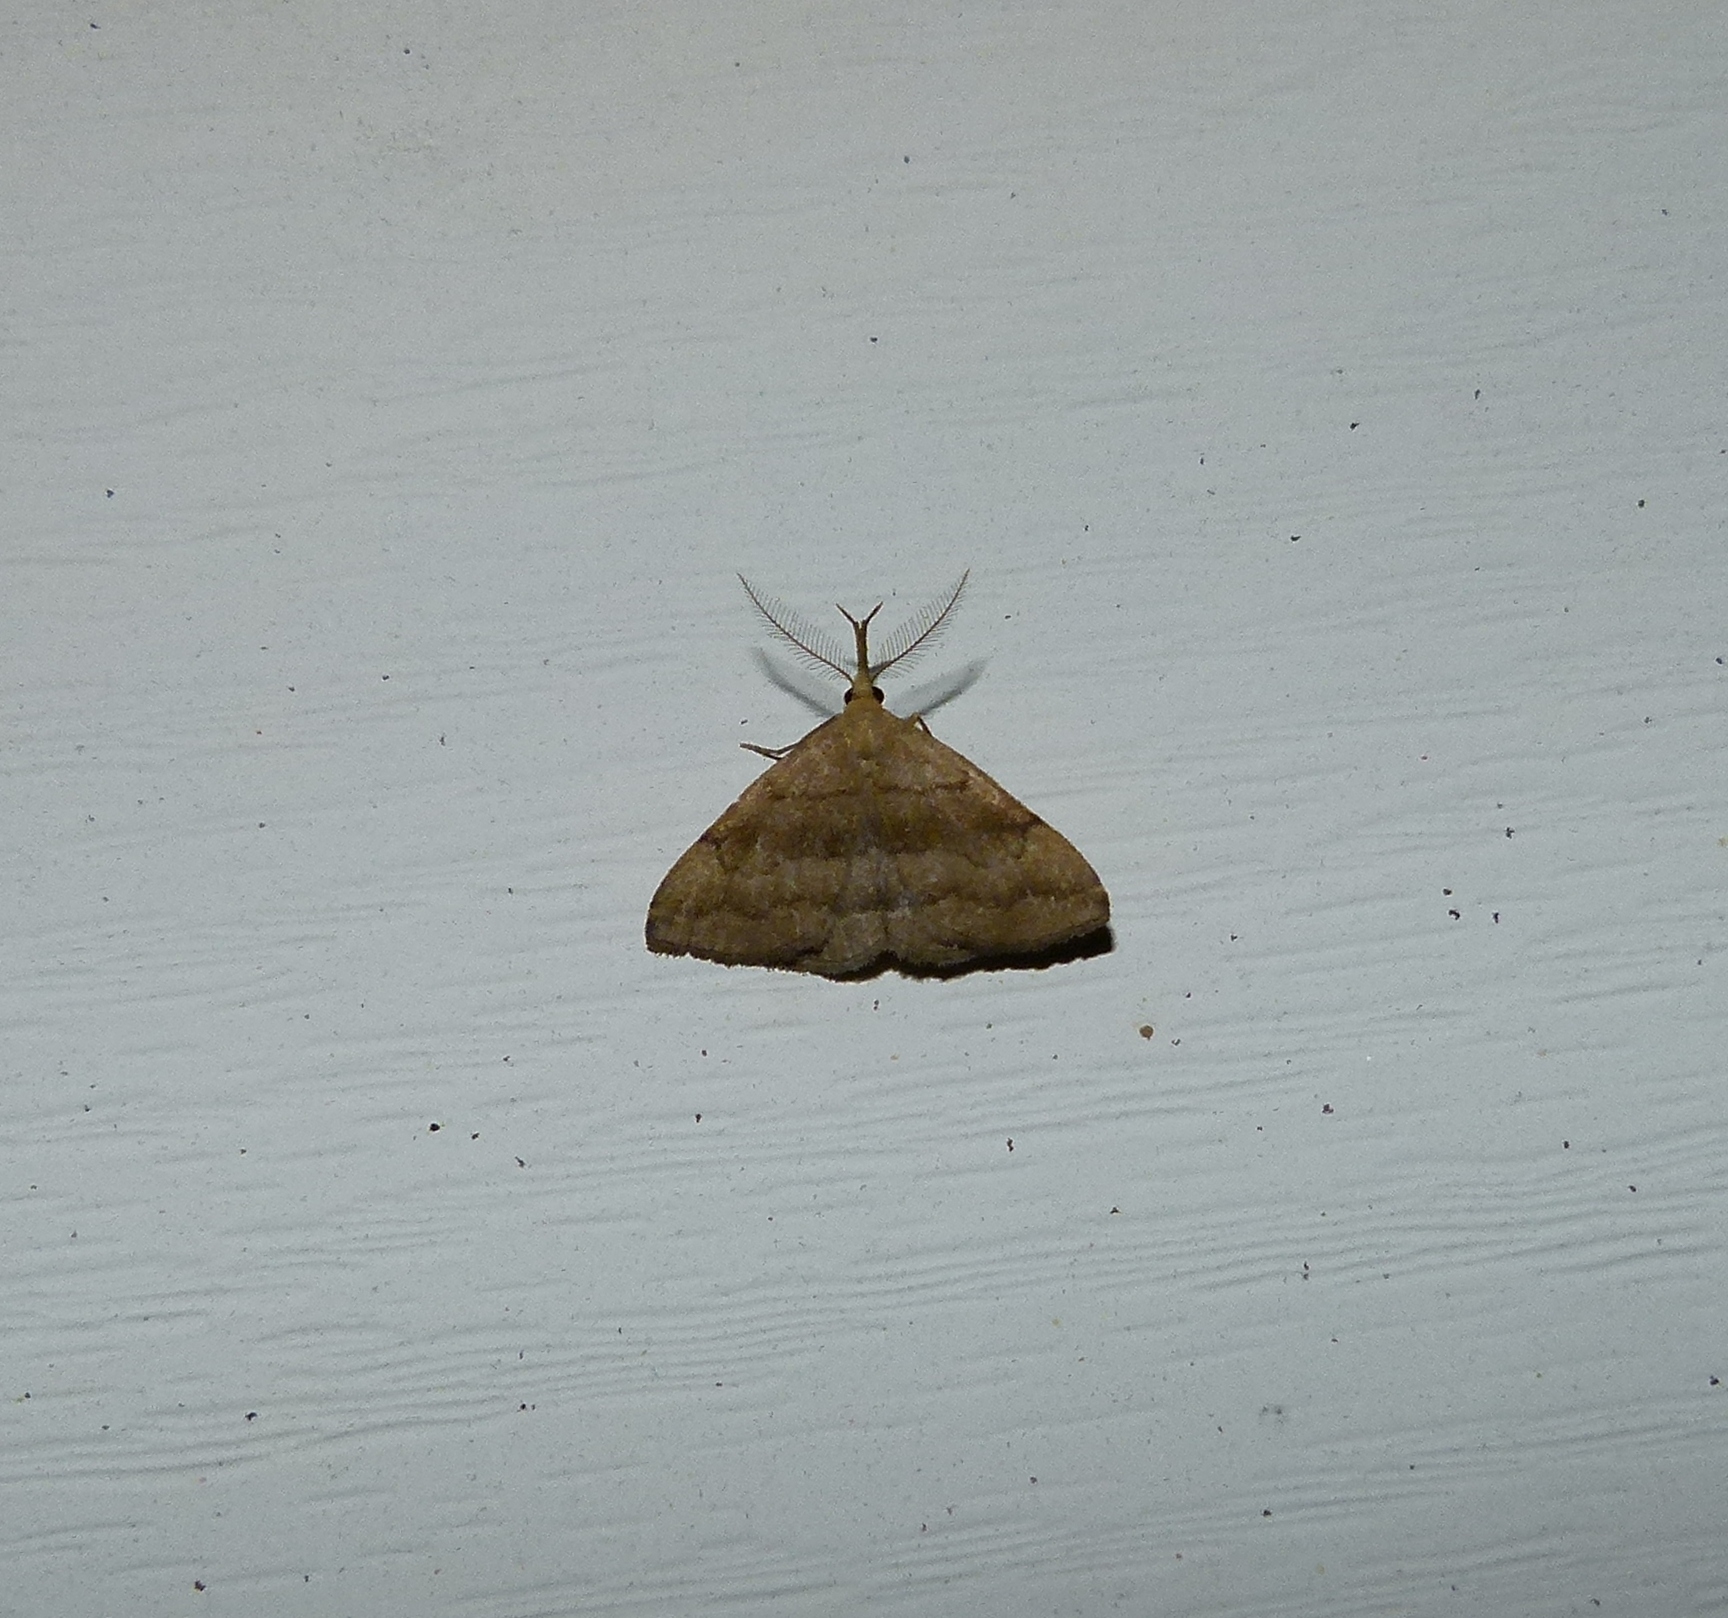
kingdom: Animalia
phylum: Arthropoda
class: Insecta
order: Lepidoptera
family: Erebidae
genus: Phalaenostola
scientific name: Phalaenostola metonalis
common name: Pale phalaenostola moth
